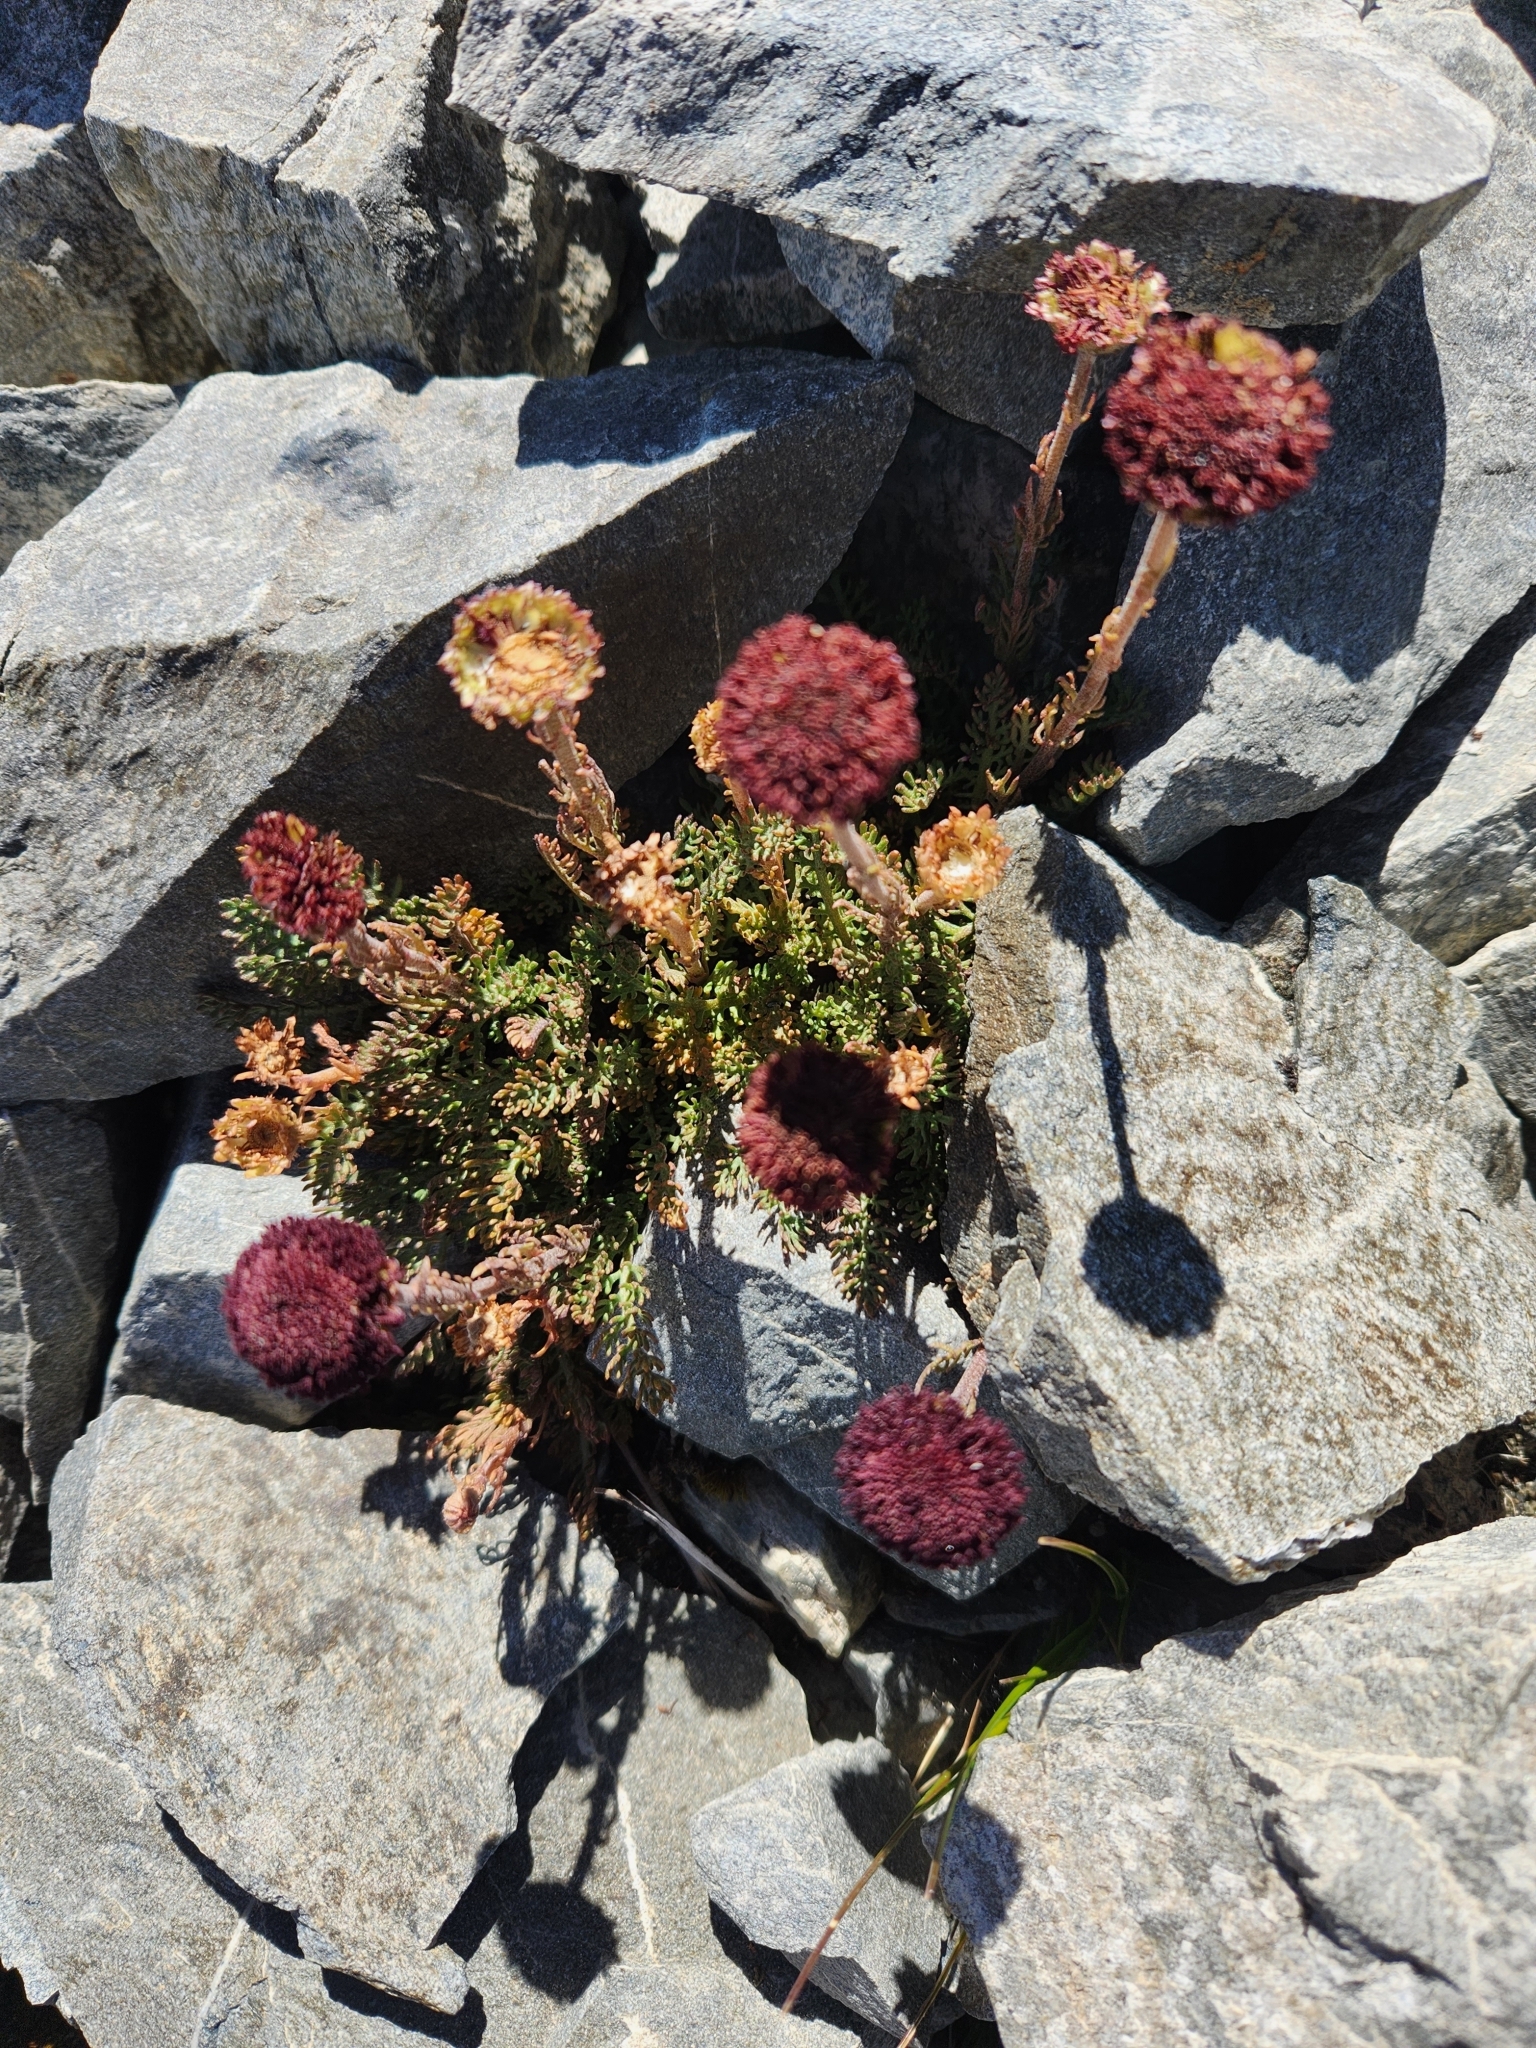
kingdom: Plantae
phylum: Tracheophyta
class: Magnoliopsida
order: Asterales
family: Asteraceae
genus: Leptinella
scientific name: Leptinella atrata
